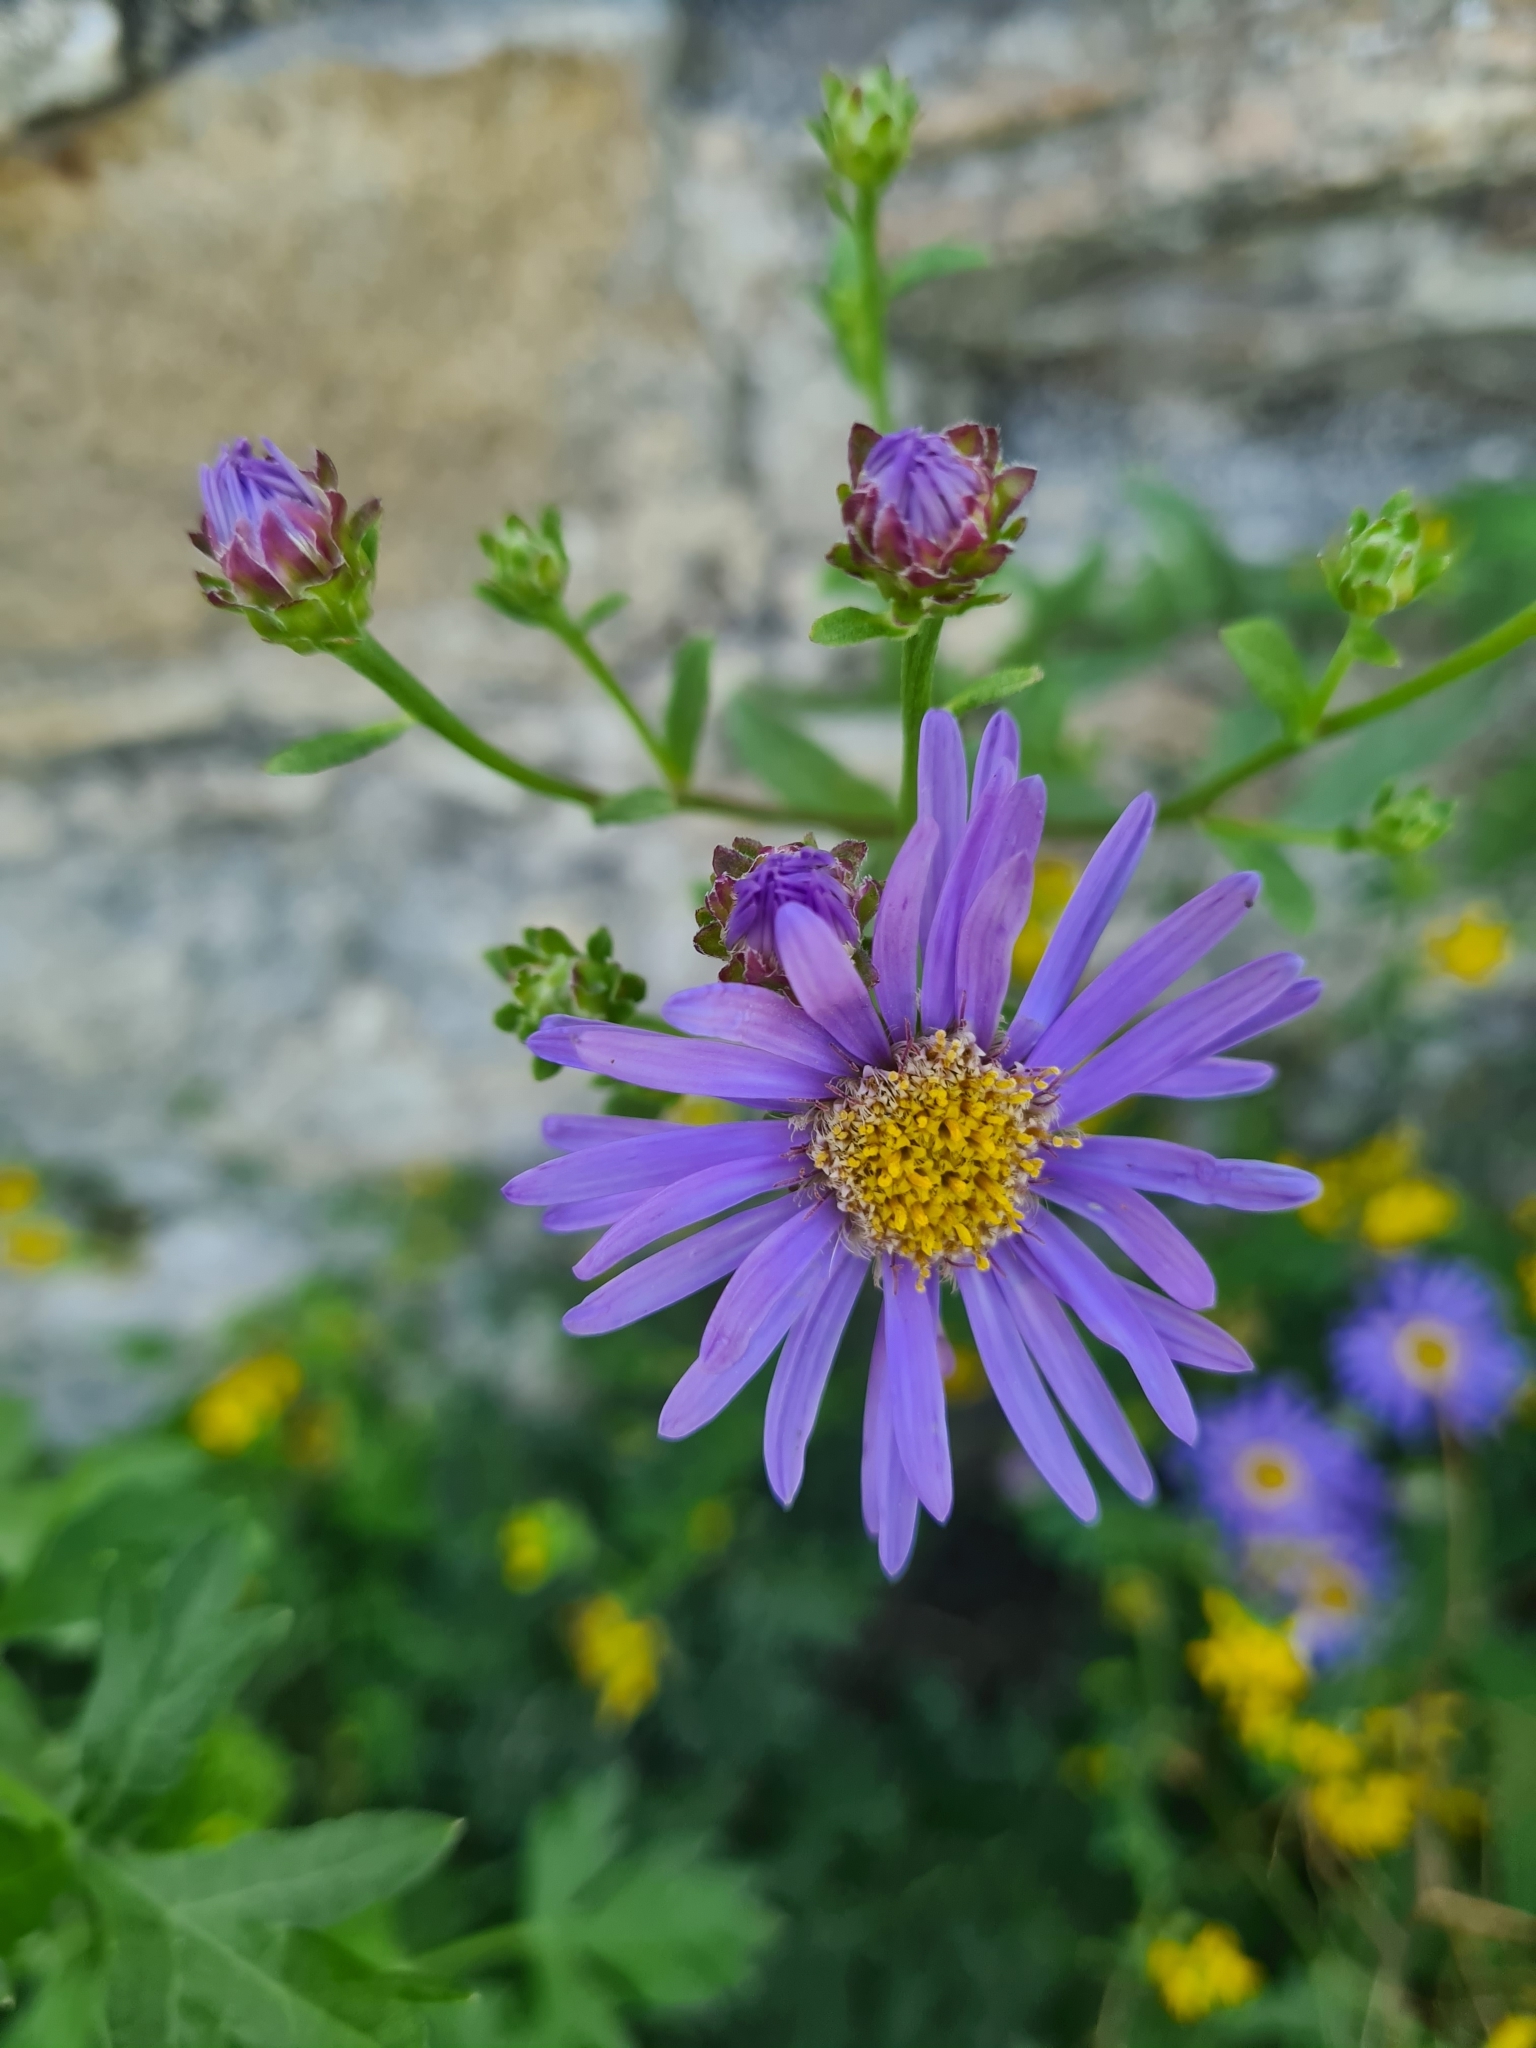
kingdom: Plantae
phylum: Tracheophyta
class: Magnoliopsida
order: Asterales
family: Asteraceae
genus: Aster
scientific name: Aster amellus
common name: European michaelmas daisy
